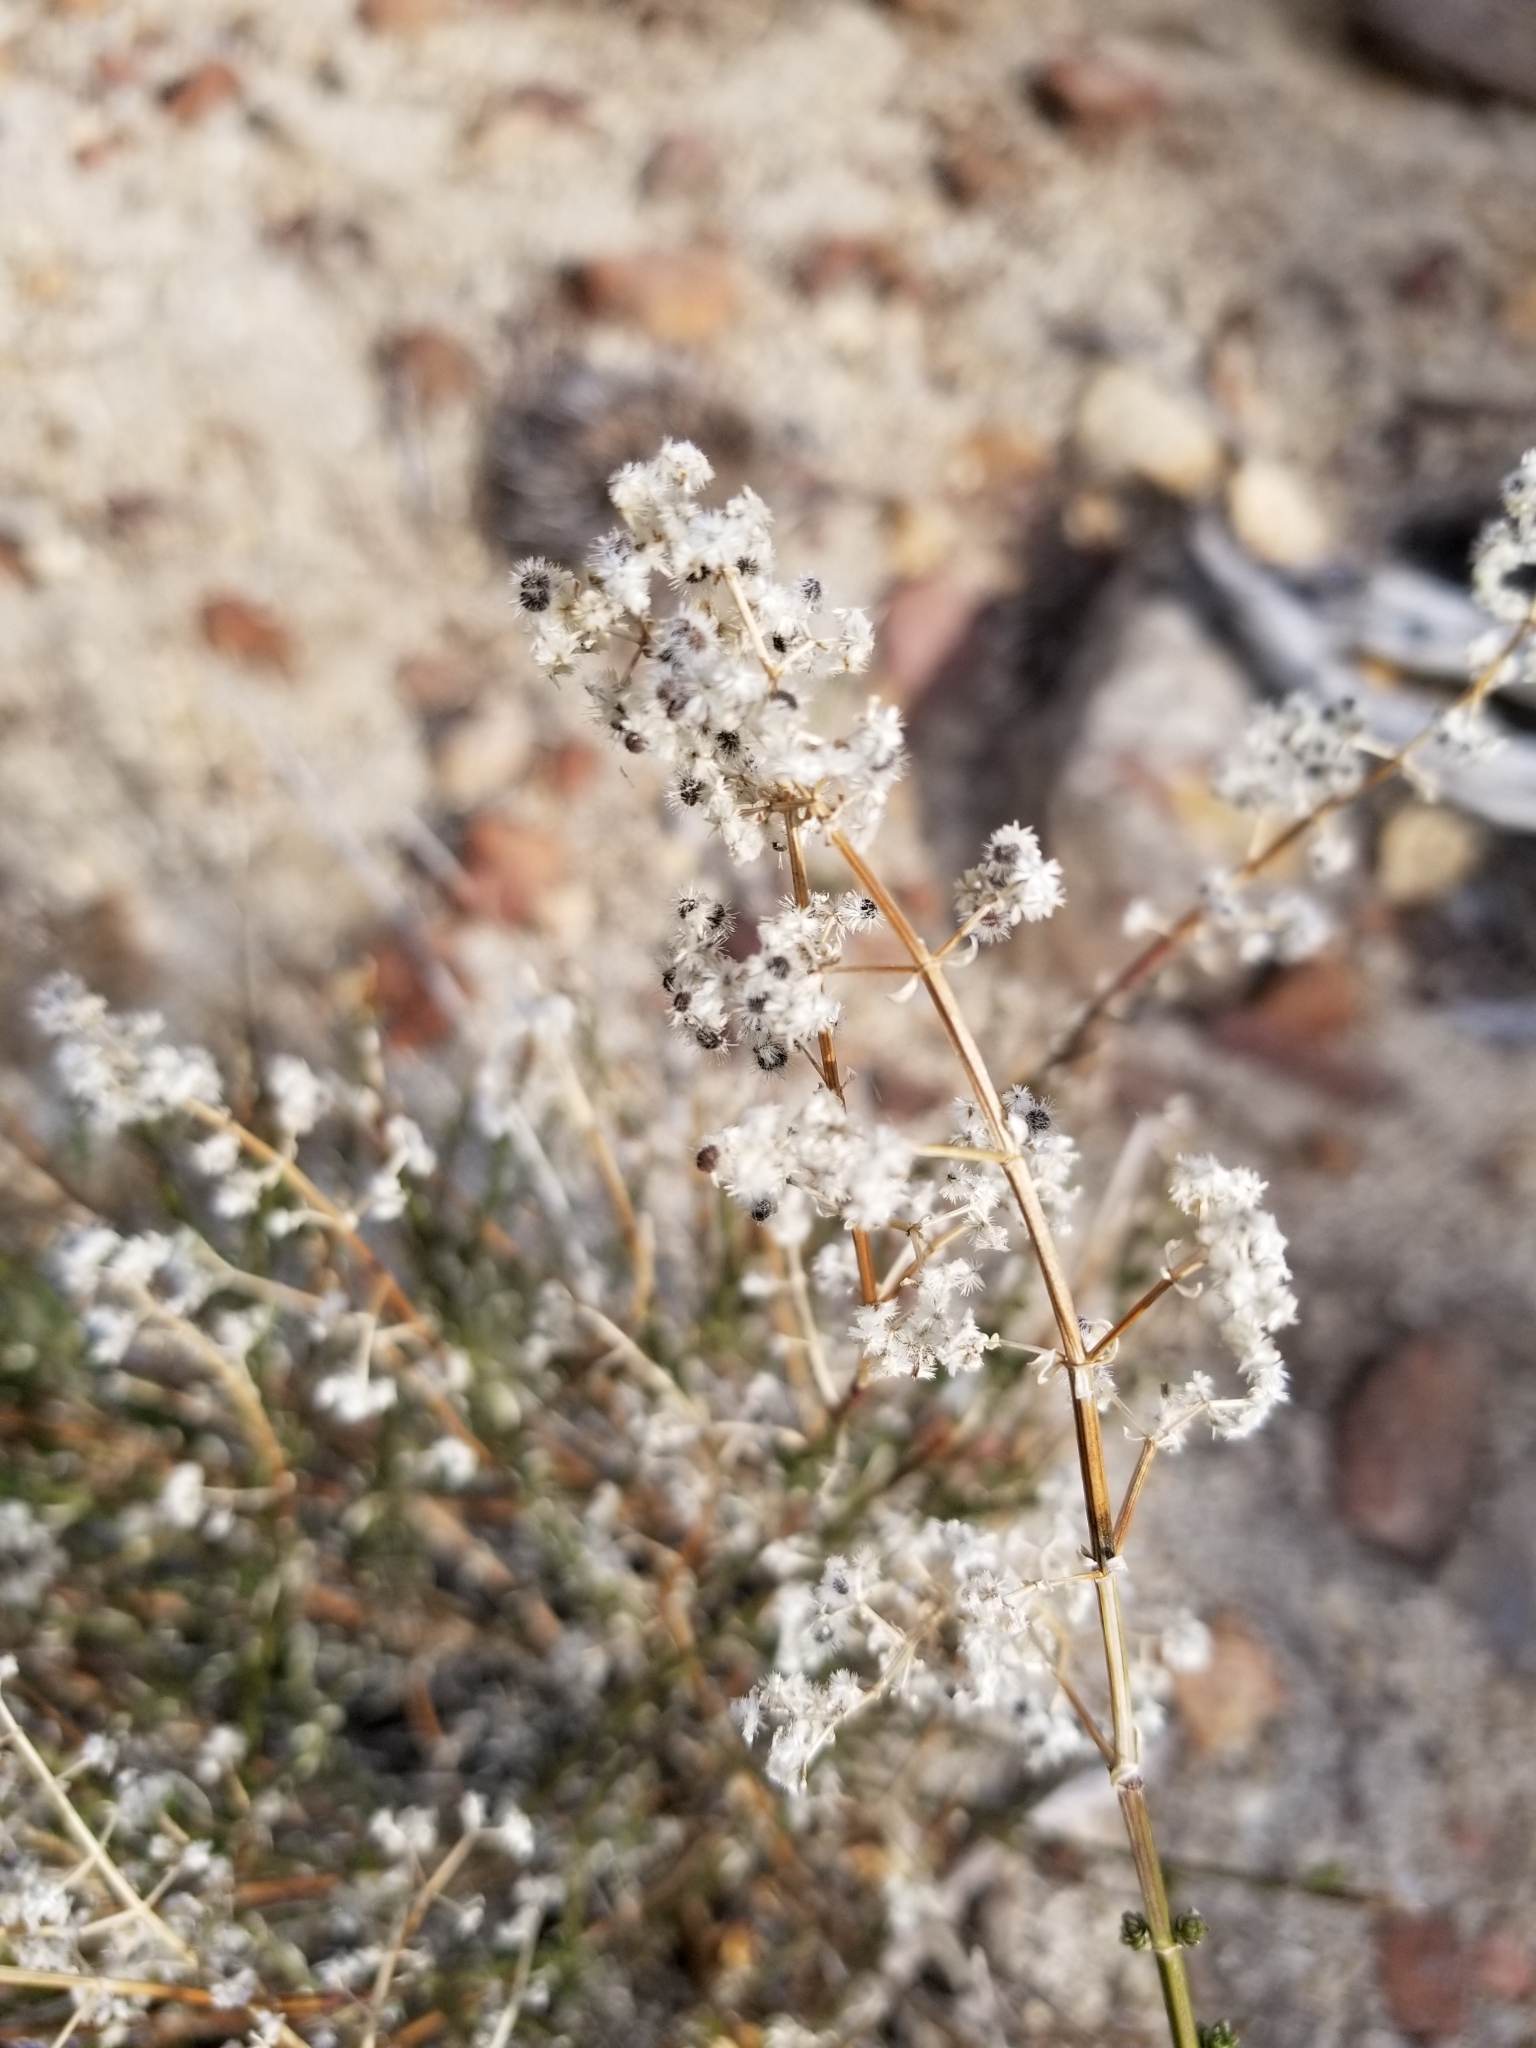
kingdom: Plantae
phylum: Tracheophyta
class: Magnoliopsida
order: Gentianales
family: Rubiaceae
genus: Galium
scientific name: Galium angustifolium
